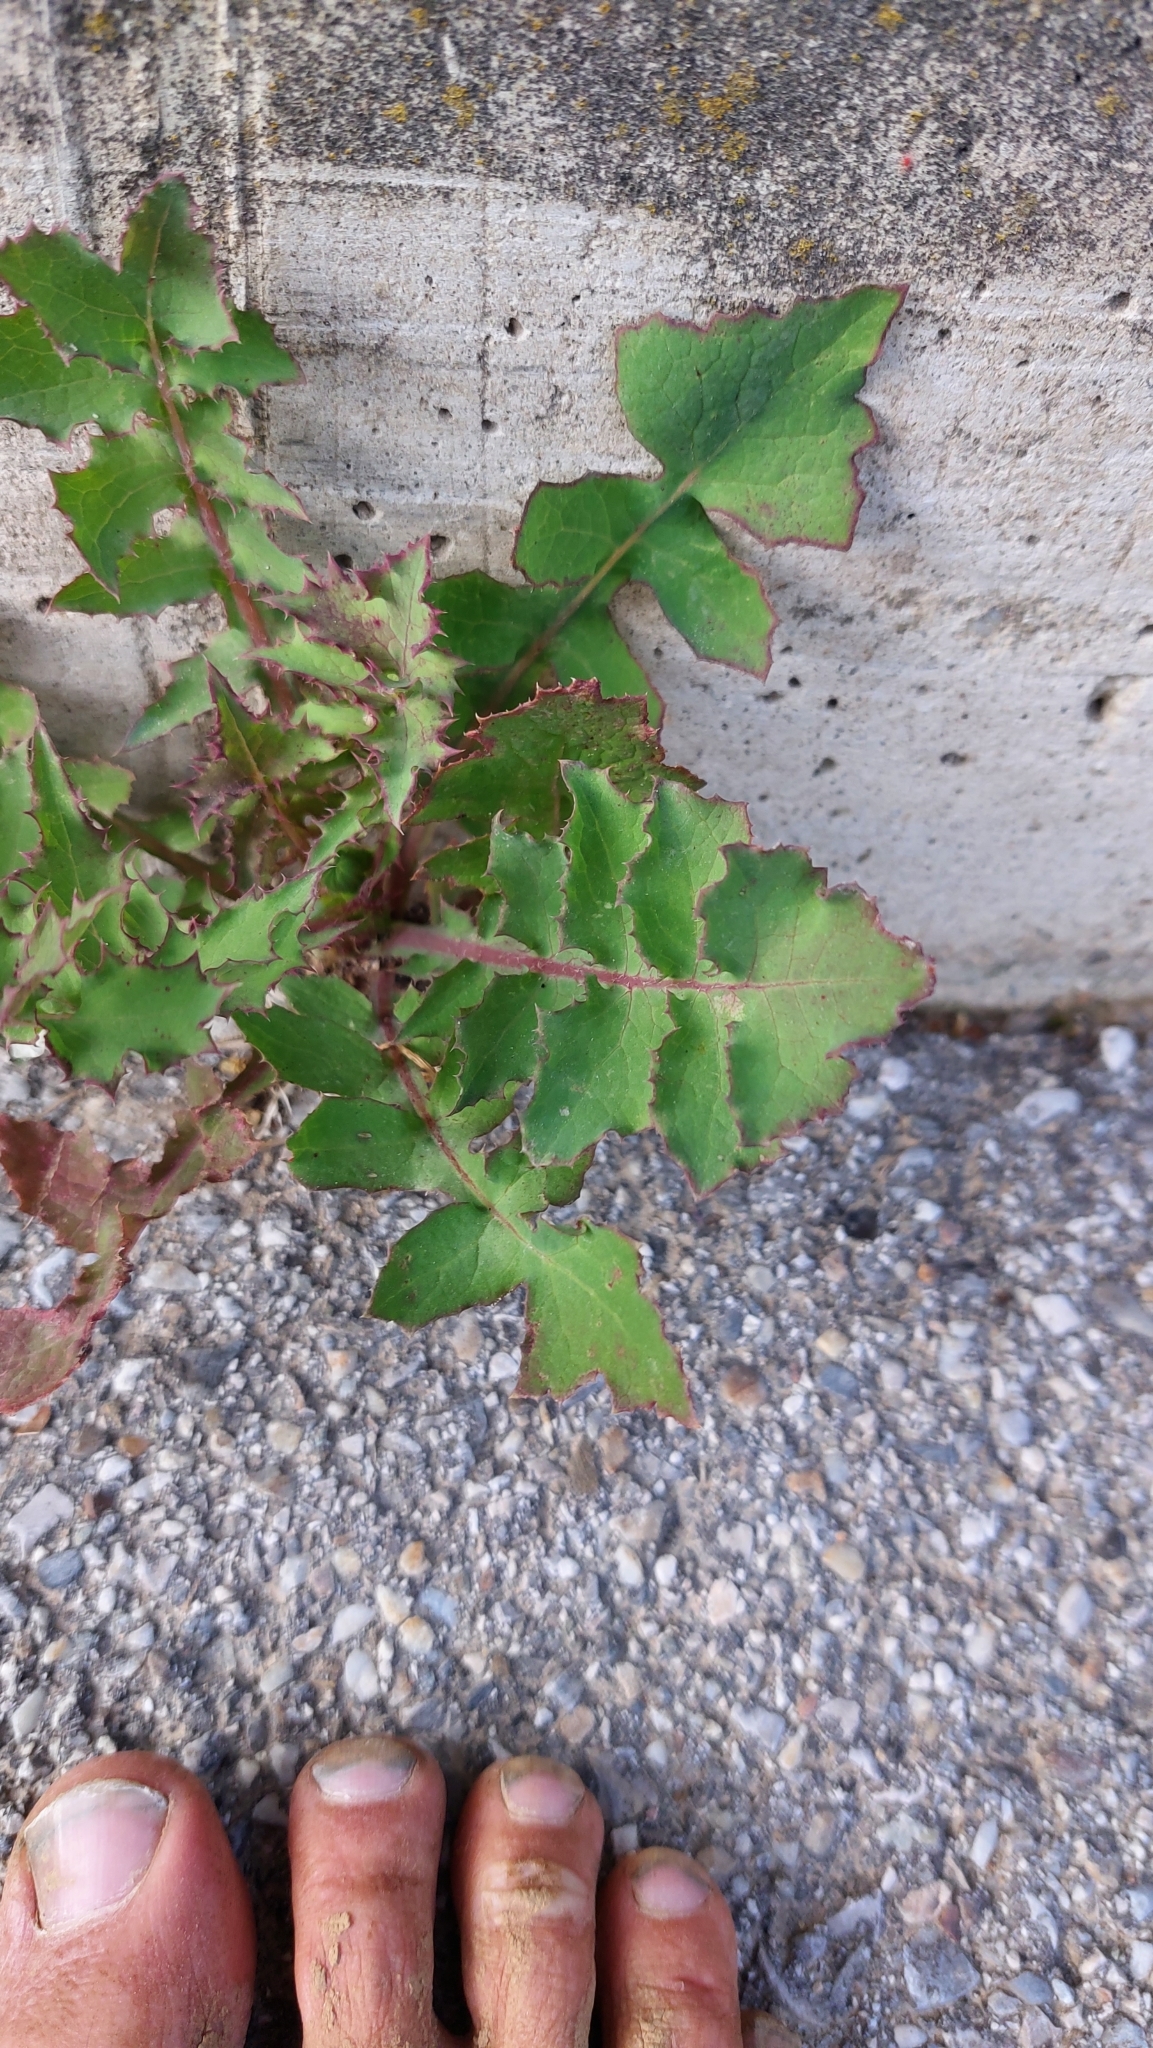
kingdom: Plantae
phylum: Tracheophyta
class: Magnoliopsida
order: Asterales
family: Asteraceae
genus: Sonchus
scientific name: Sonchus oleraceus
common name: Common sowthistle
